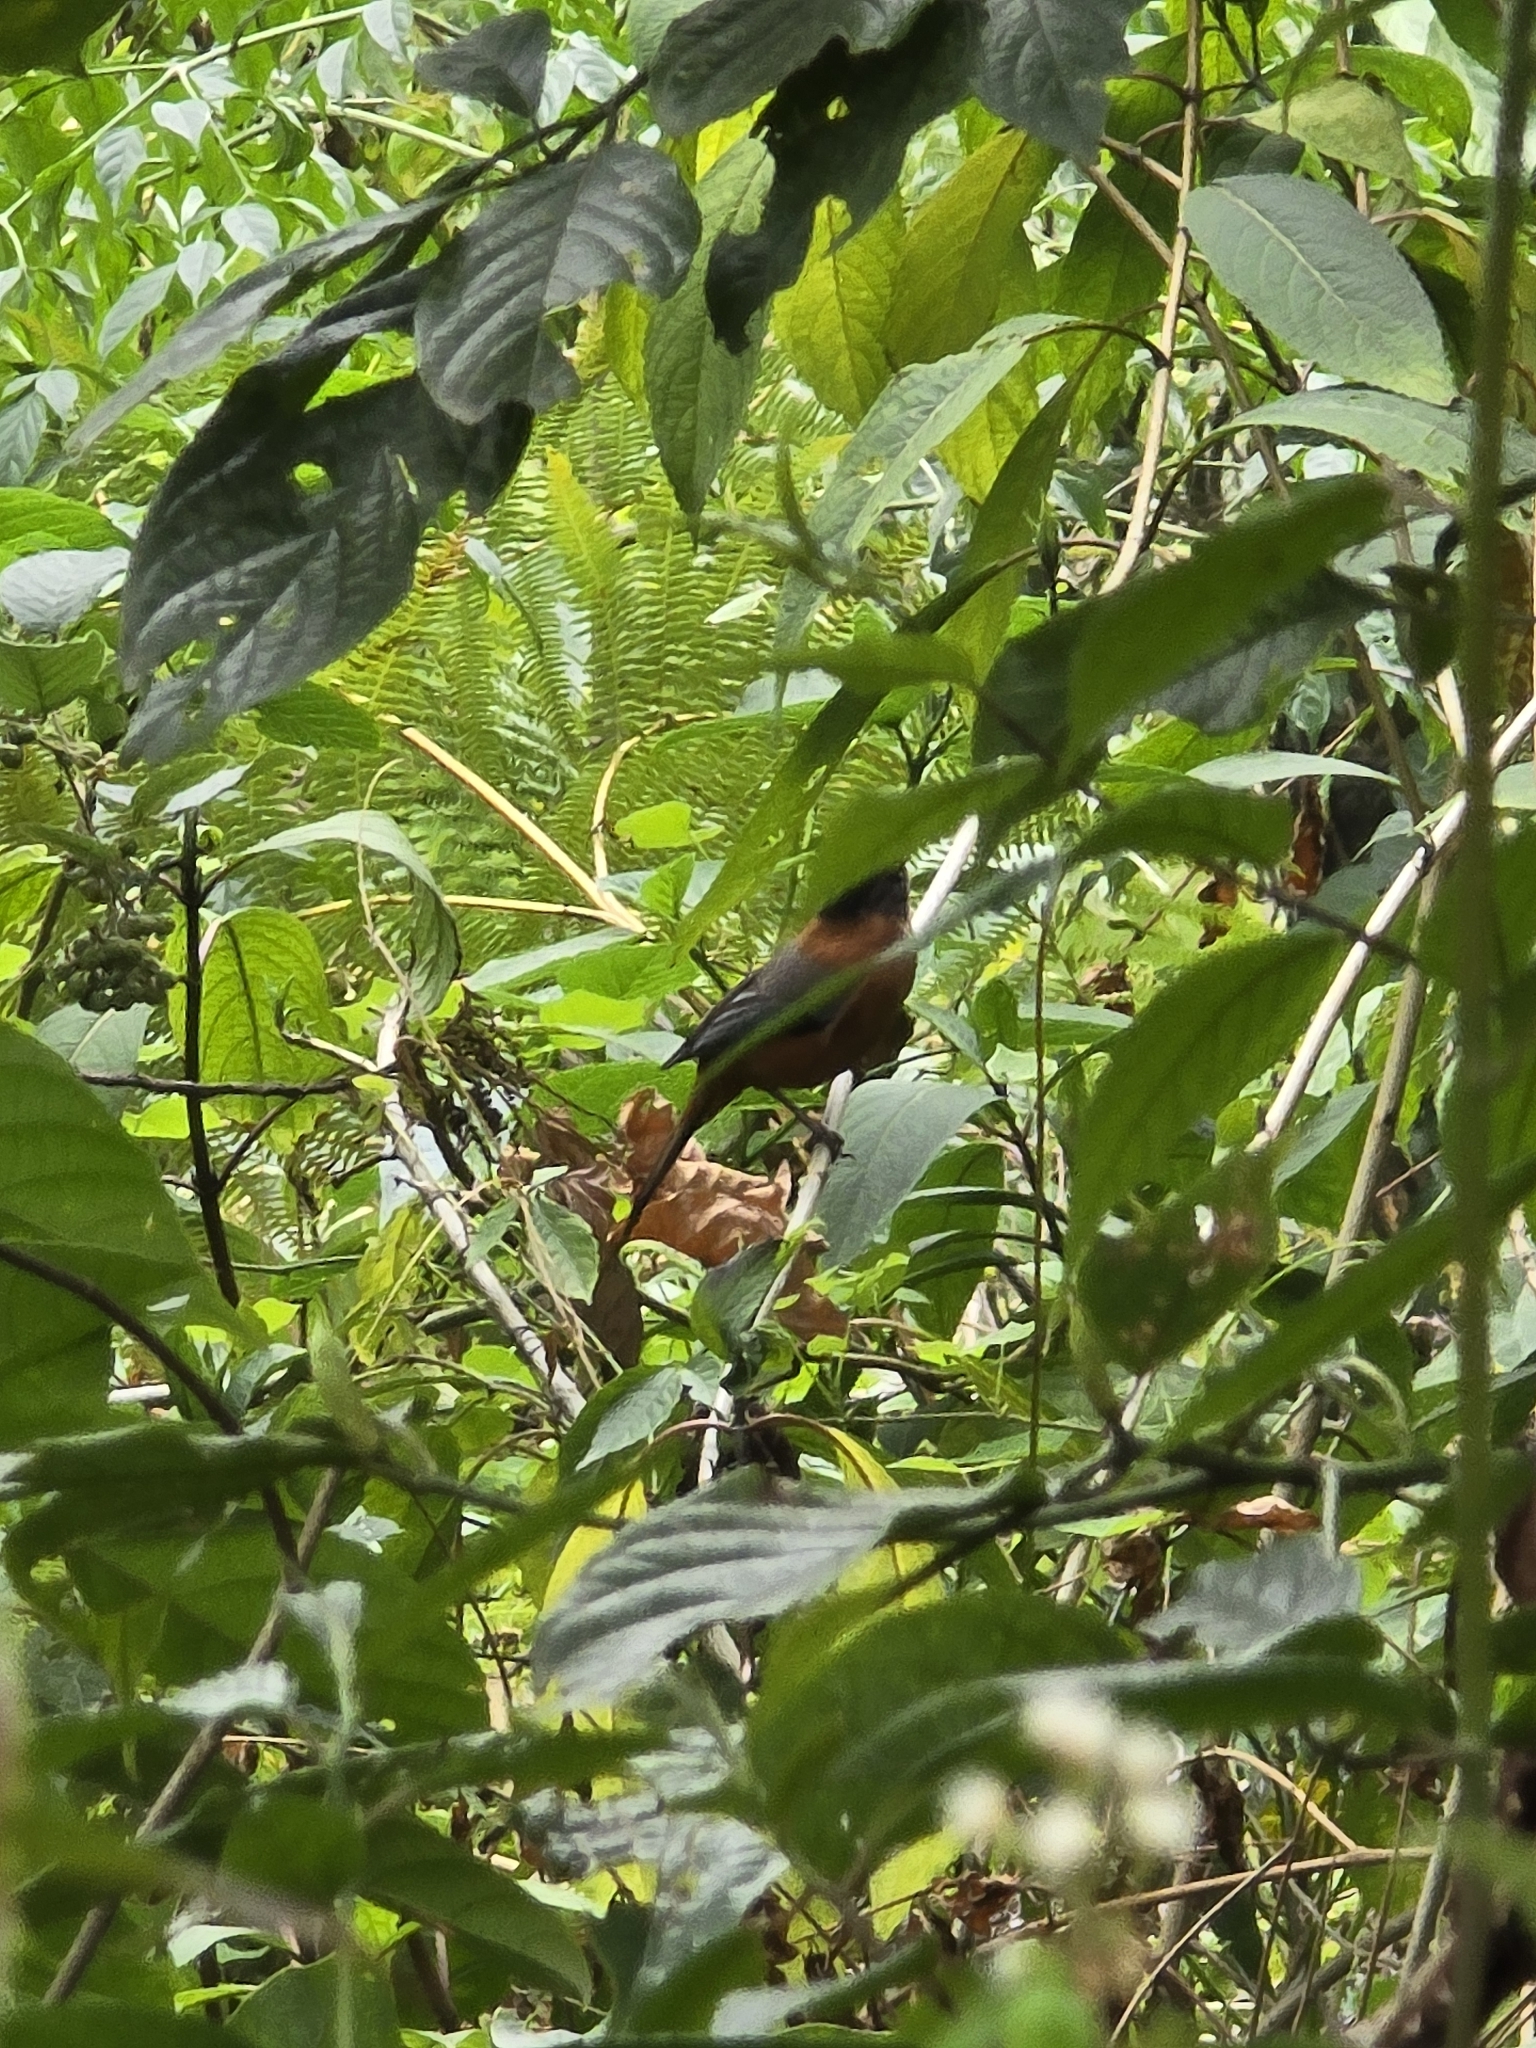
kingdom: Animalia
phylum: Chordata
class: Aves
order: Passeriformes
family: Leiothrichidae
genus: Heterophasia
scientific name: Heterophasia capistrata
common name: Rufous sibia
